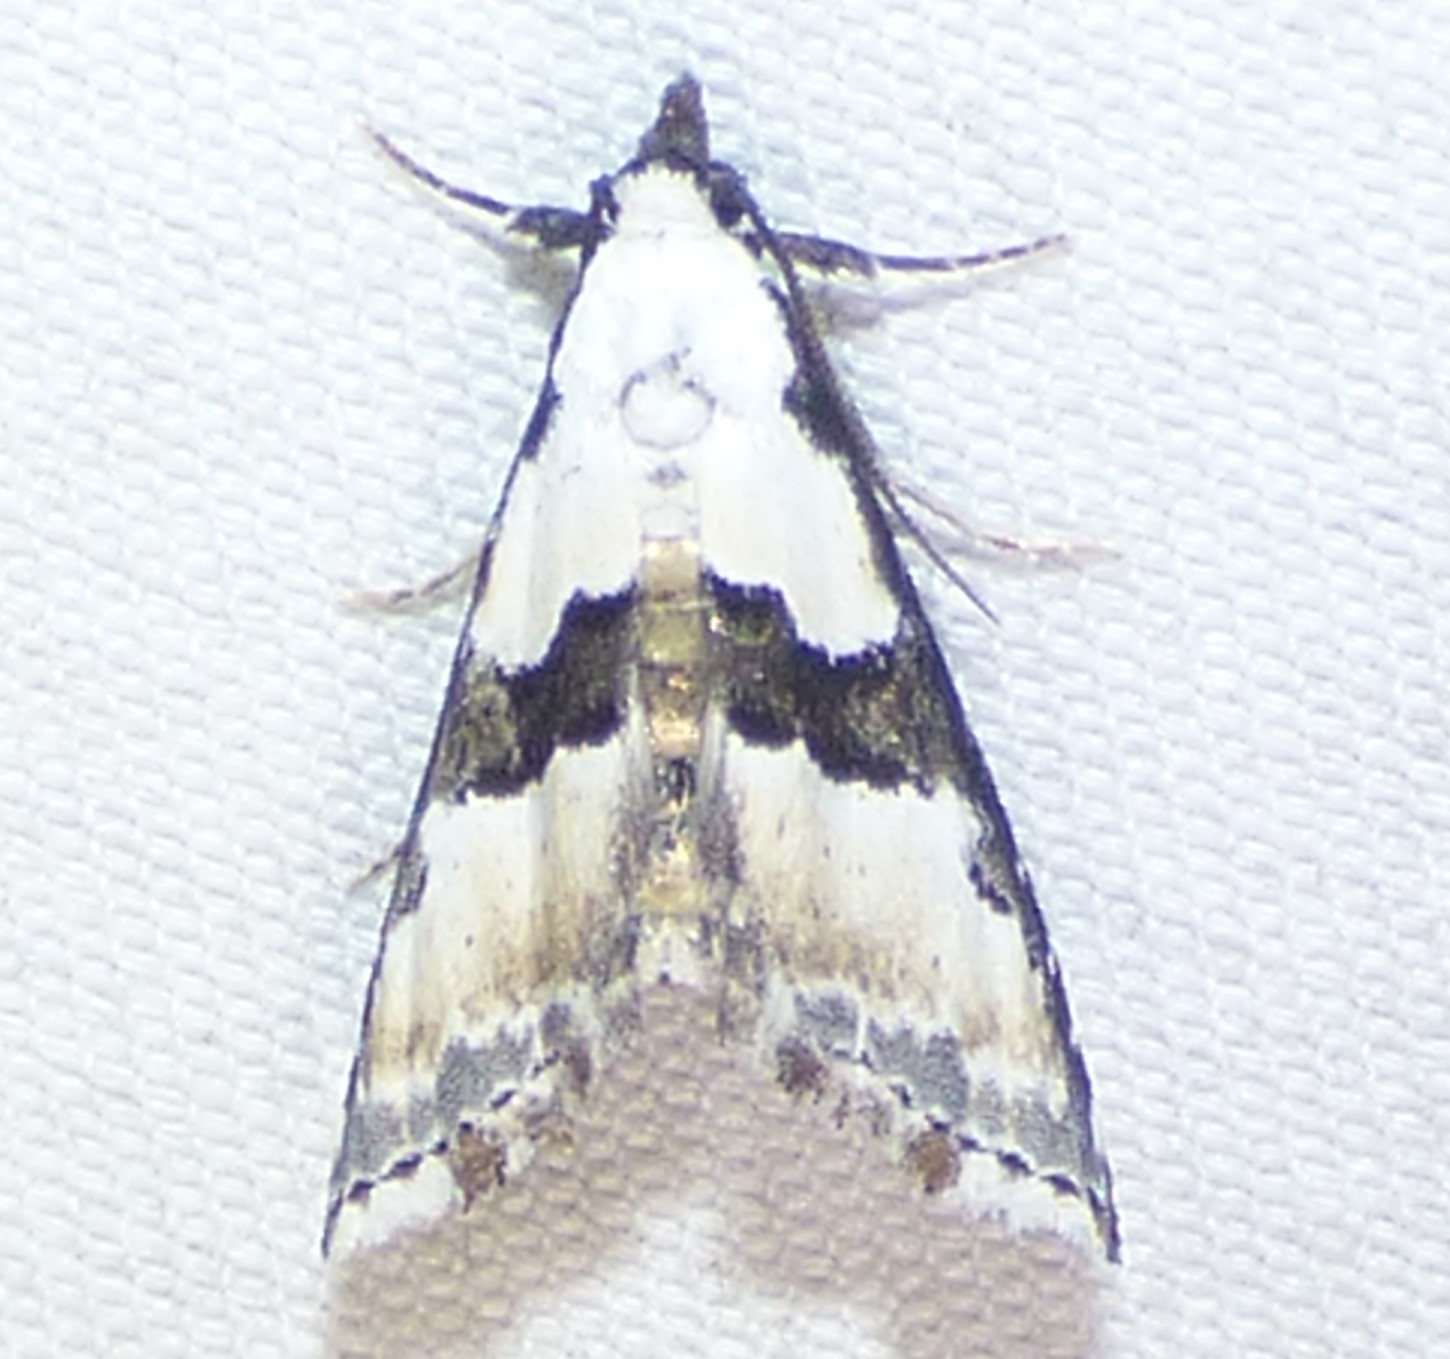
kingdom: Animalia
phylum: Arthropoda
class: Insecta
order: Lepidoptera
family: Noctuidae
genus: Nigetia
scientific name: Nigetia formosalis
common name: Thin-winged owlet
